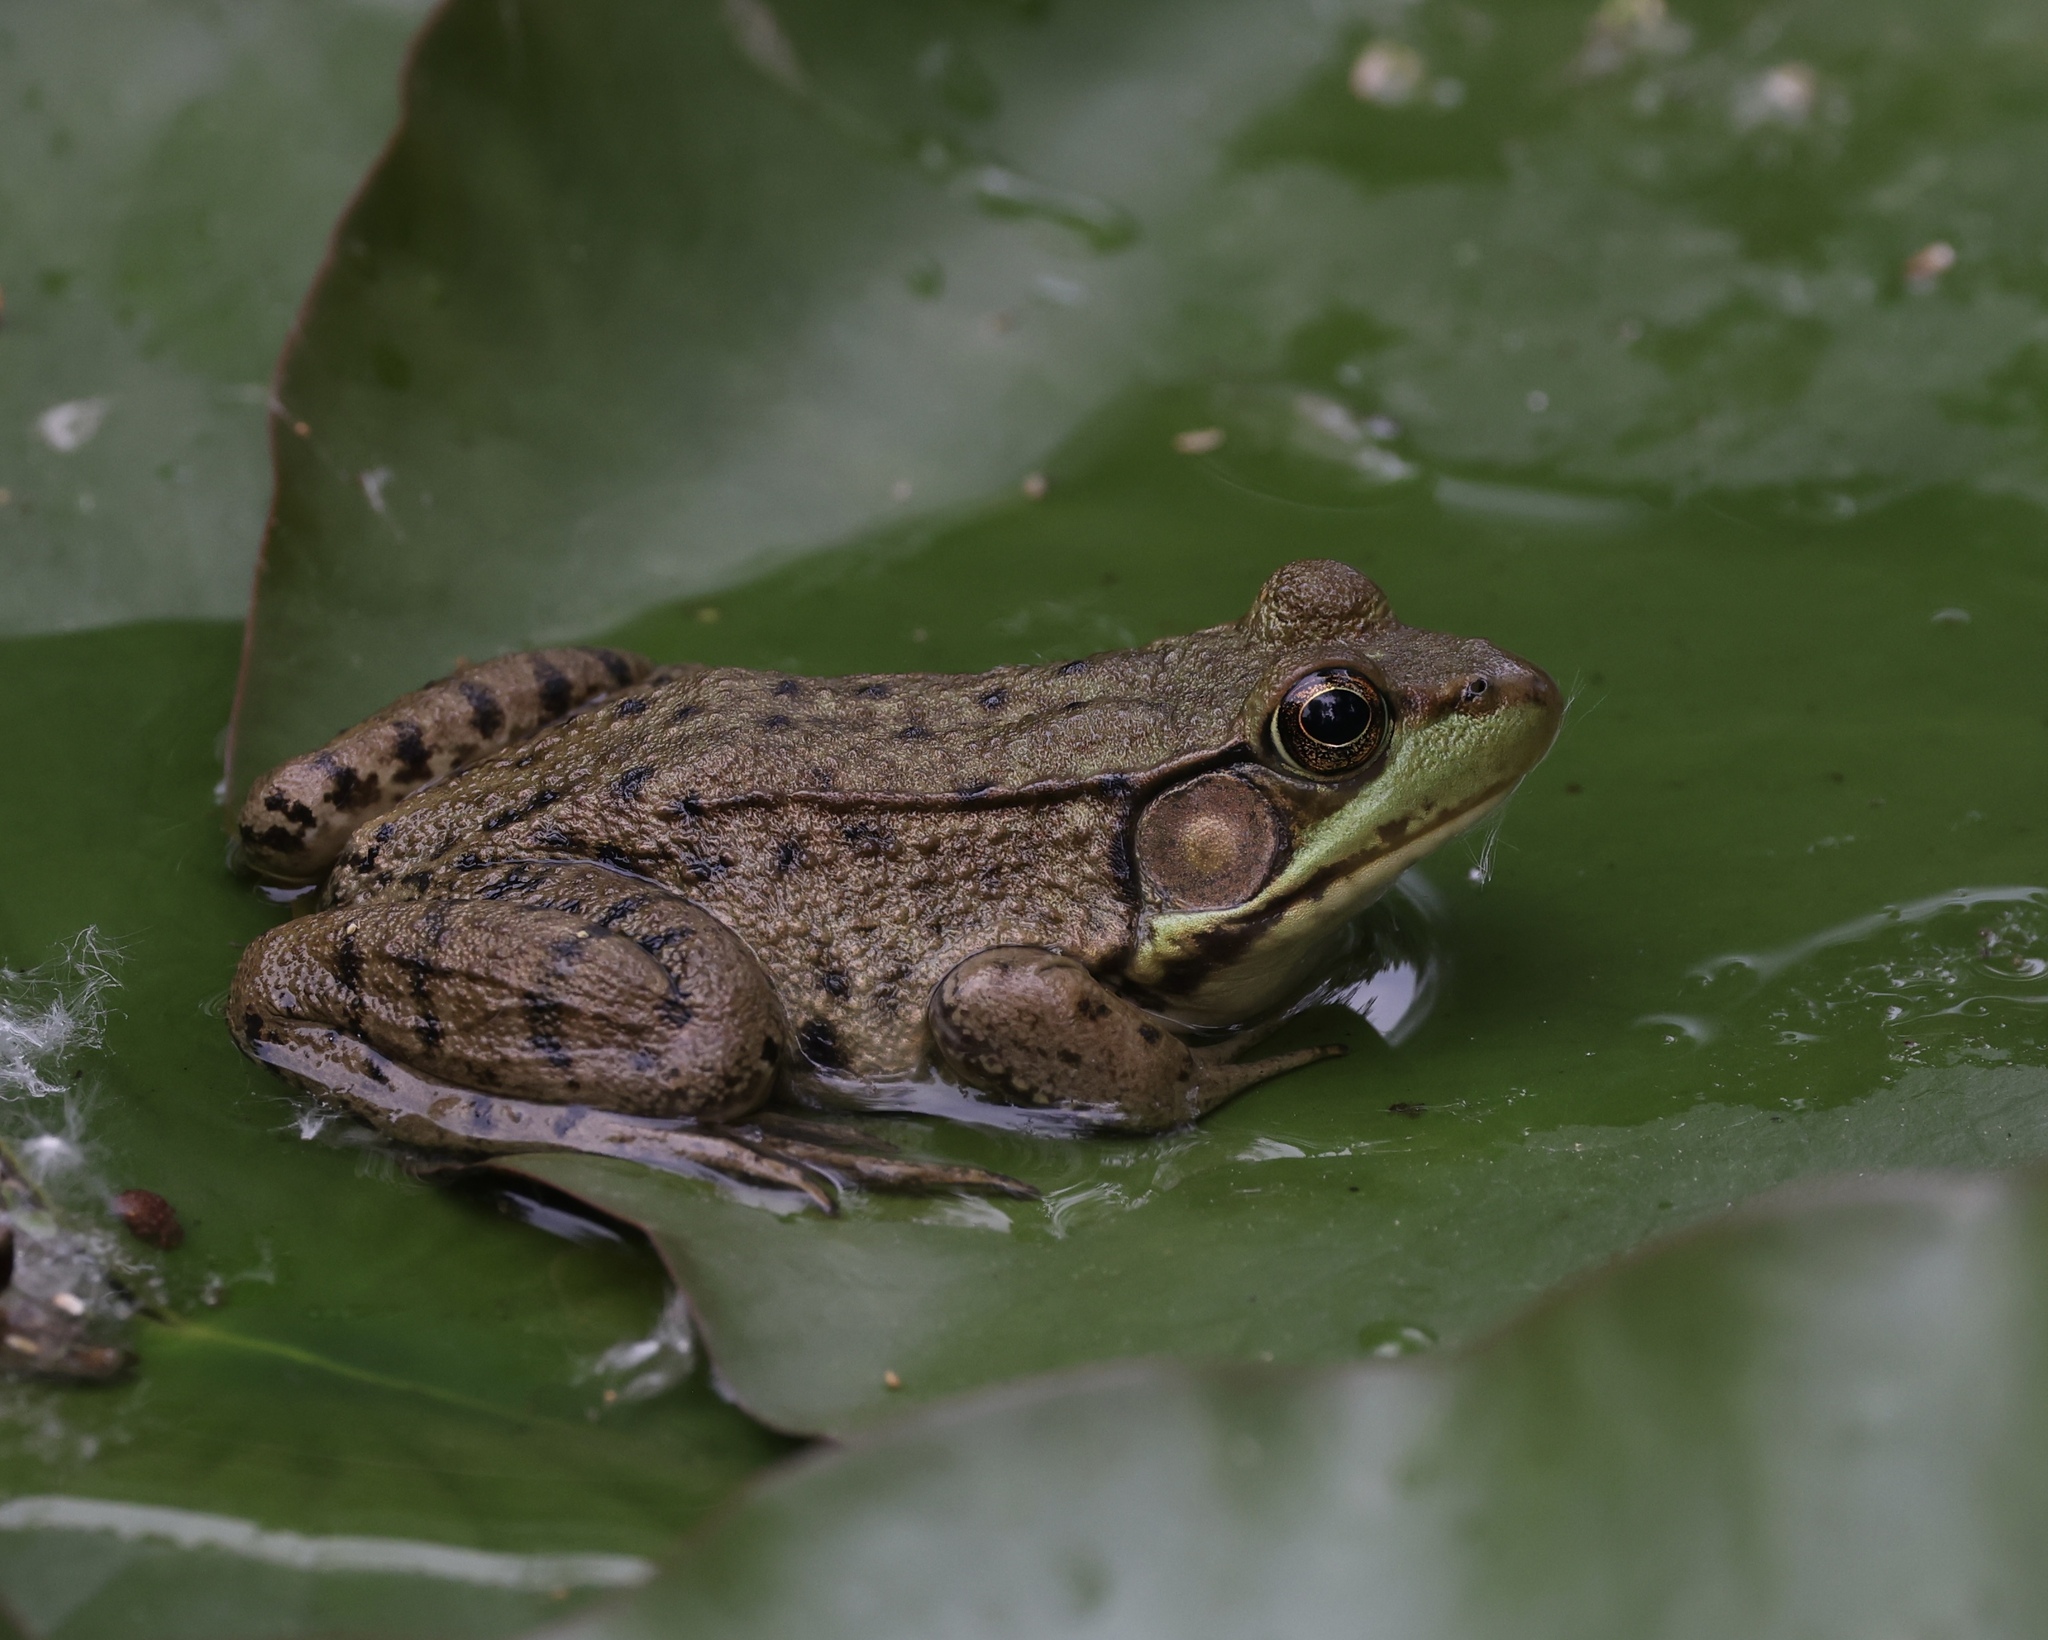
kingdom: Animalia
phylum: Chordata
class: Amphibia
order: Anura
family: Ranidae
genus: Lithobates
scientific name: Lithobates clamitans
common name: Green frog
